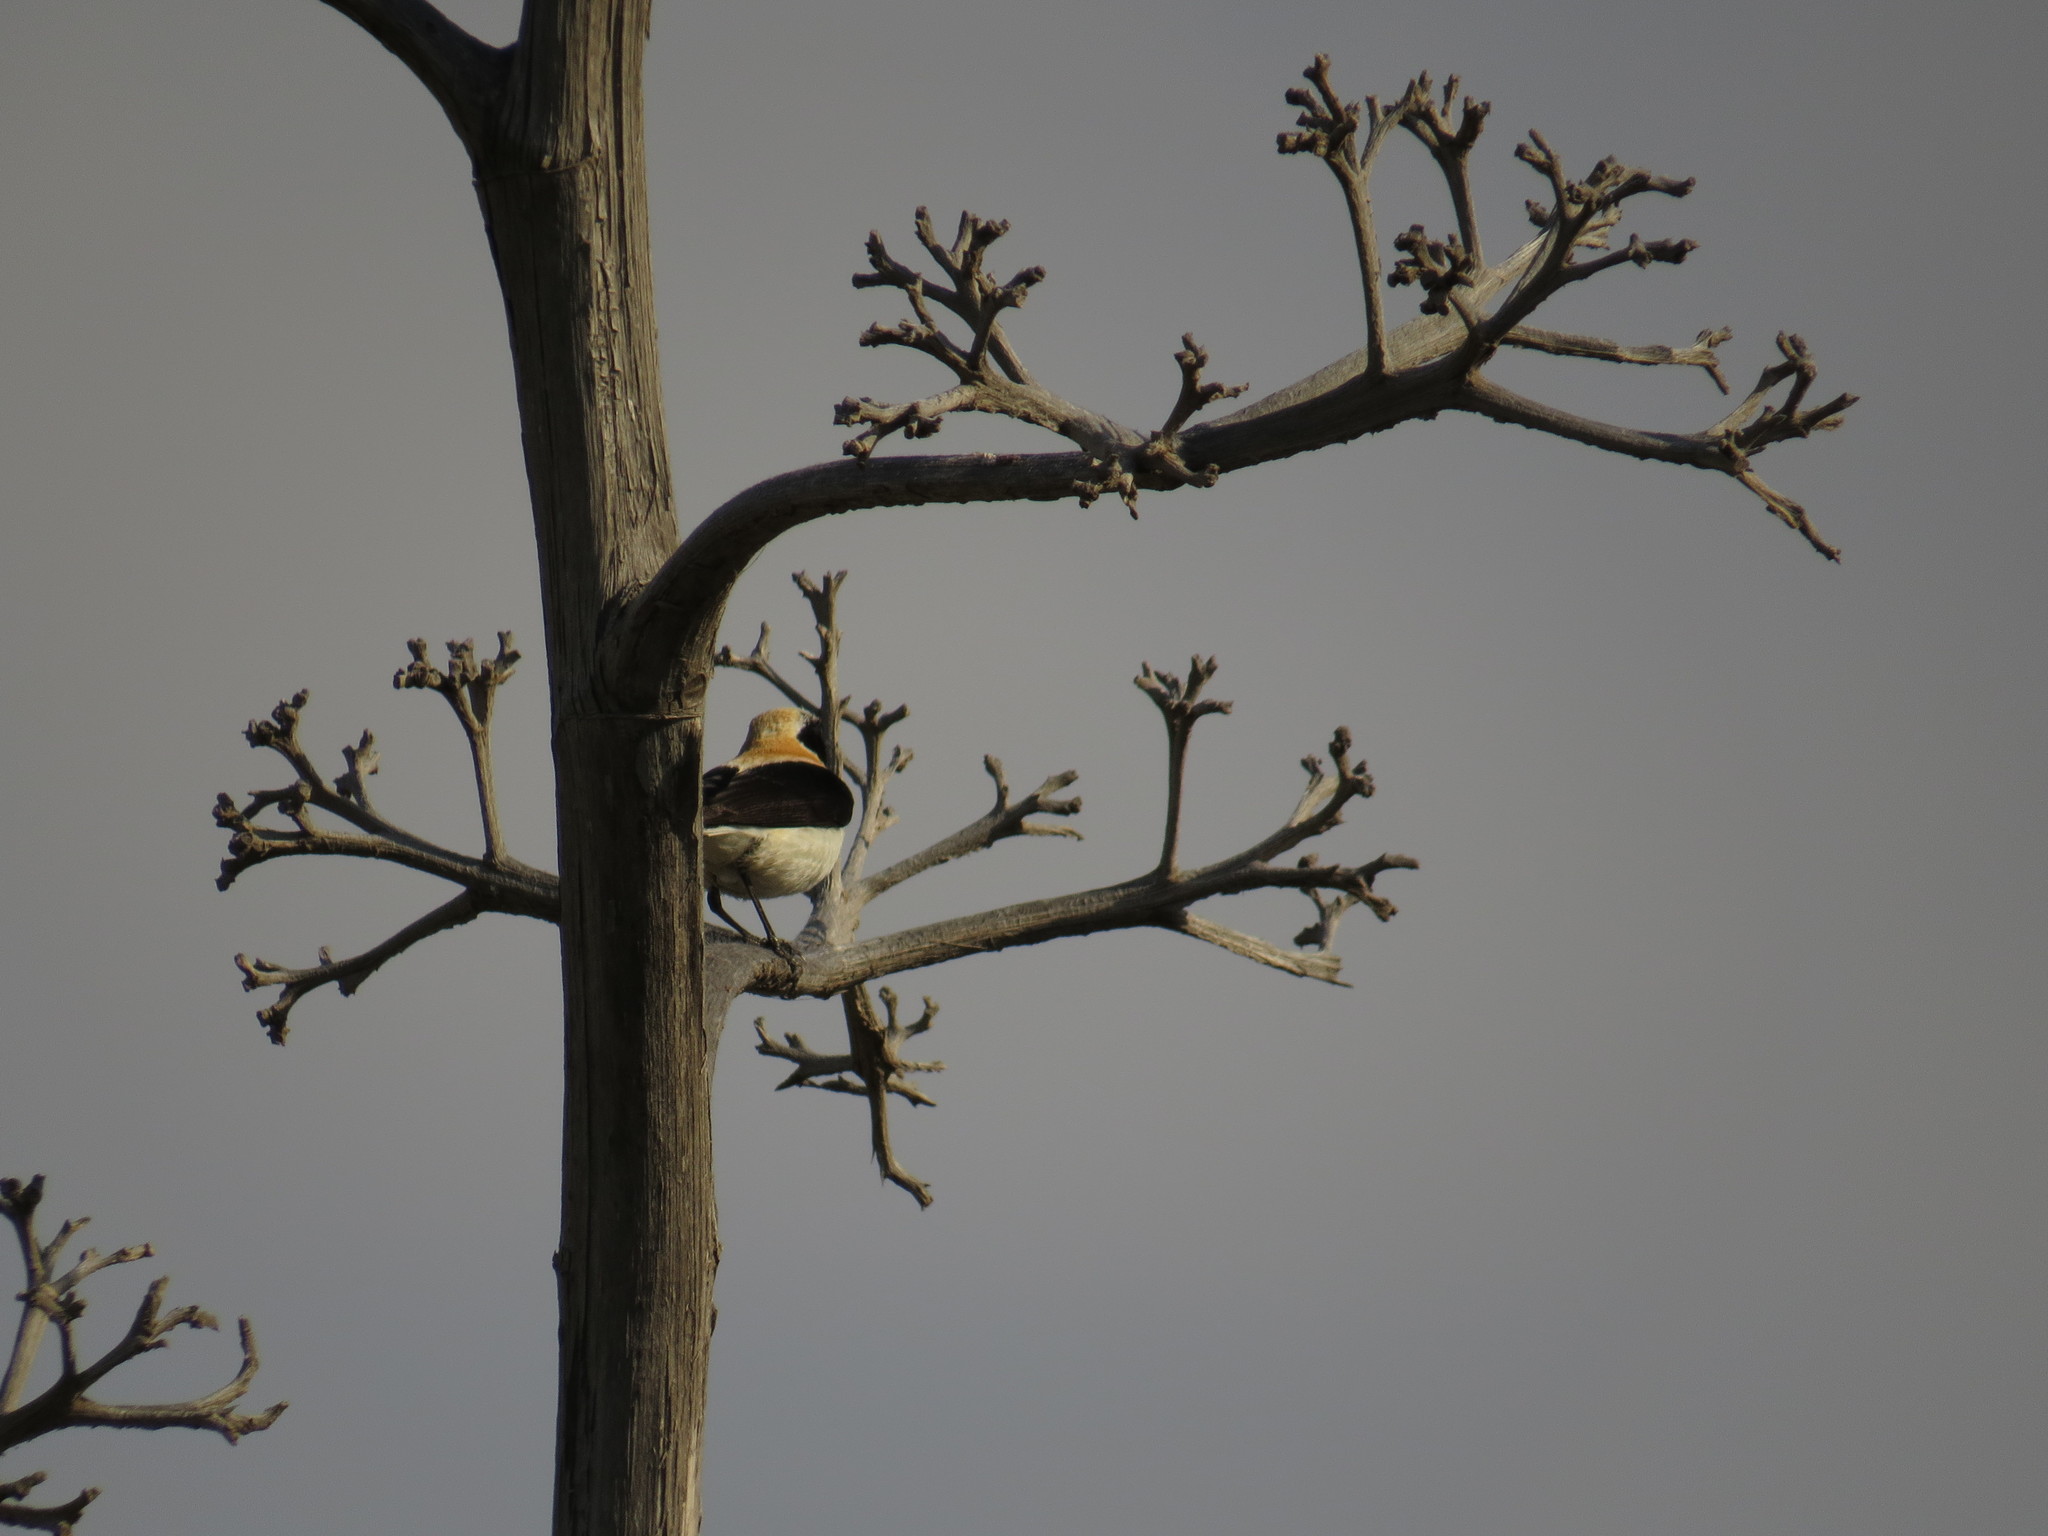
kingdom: Animalia
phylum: Chordata
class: Aves
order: Passeriformes
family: Muscicapidae
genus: Oenanthe
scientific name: Oenanthe hispanica
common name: Black-eared wheatear
